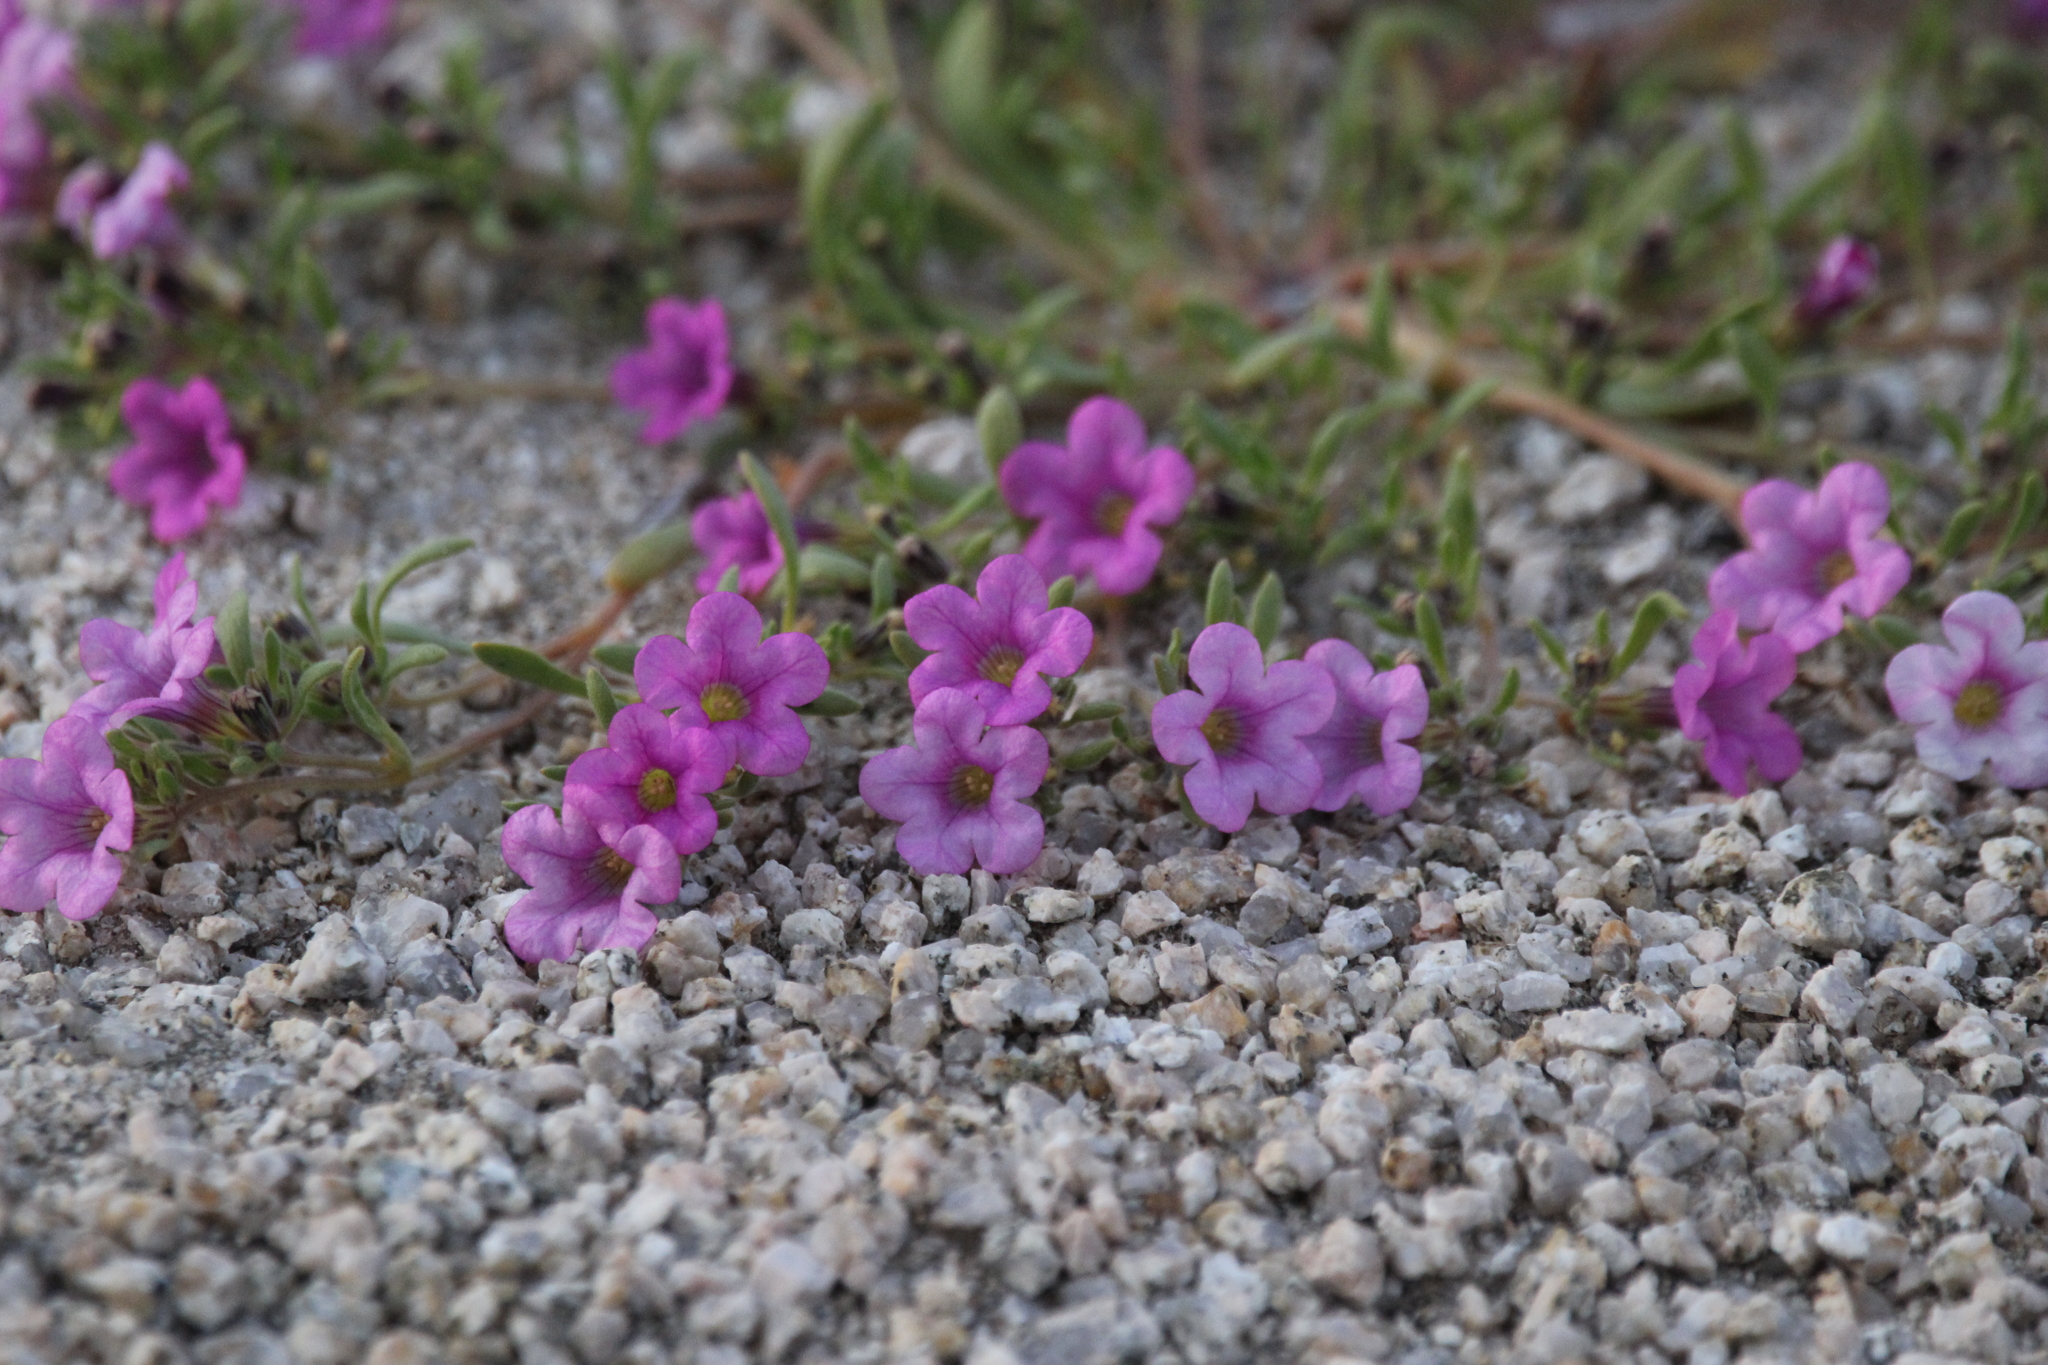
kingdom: Plantae
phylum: Tracheophyta
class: Magnoliopsida
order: Boraginales
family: Namaceae
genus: Nama
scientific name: Nama demissa
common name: Leafy nama
